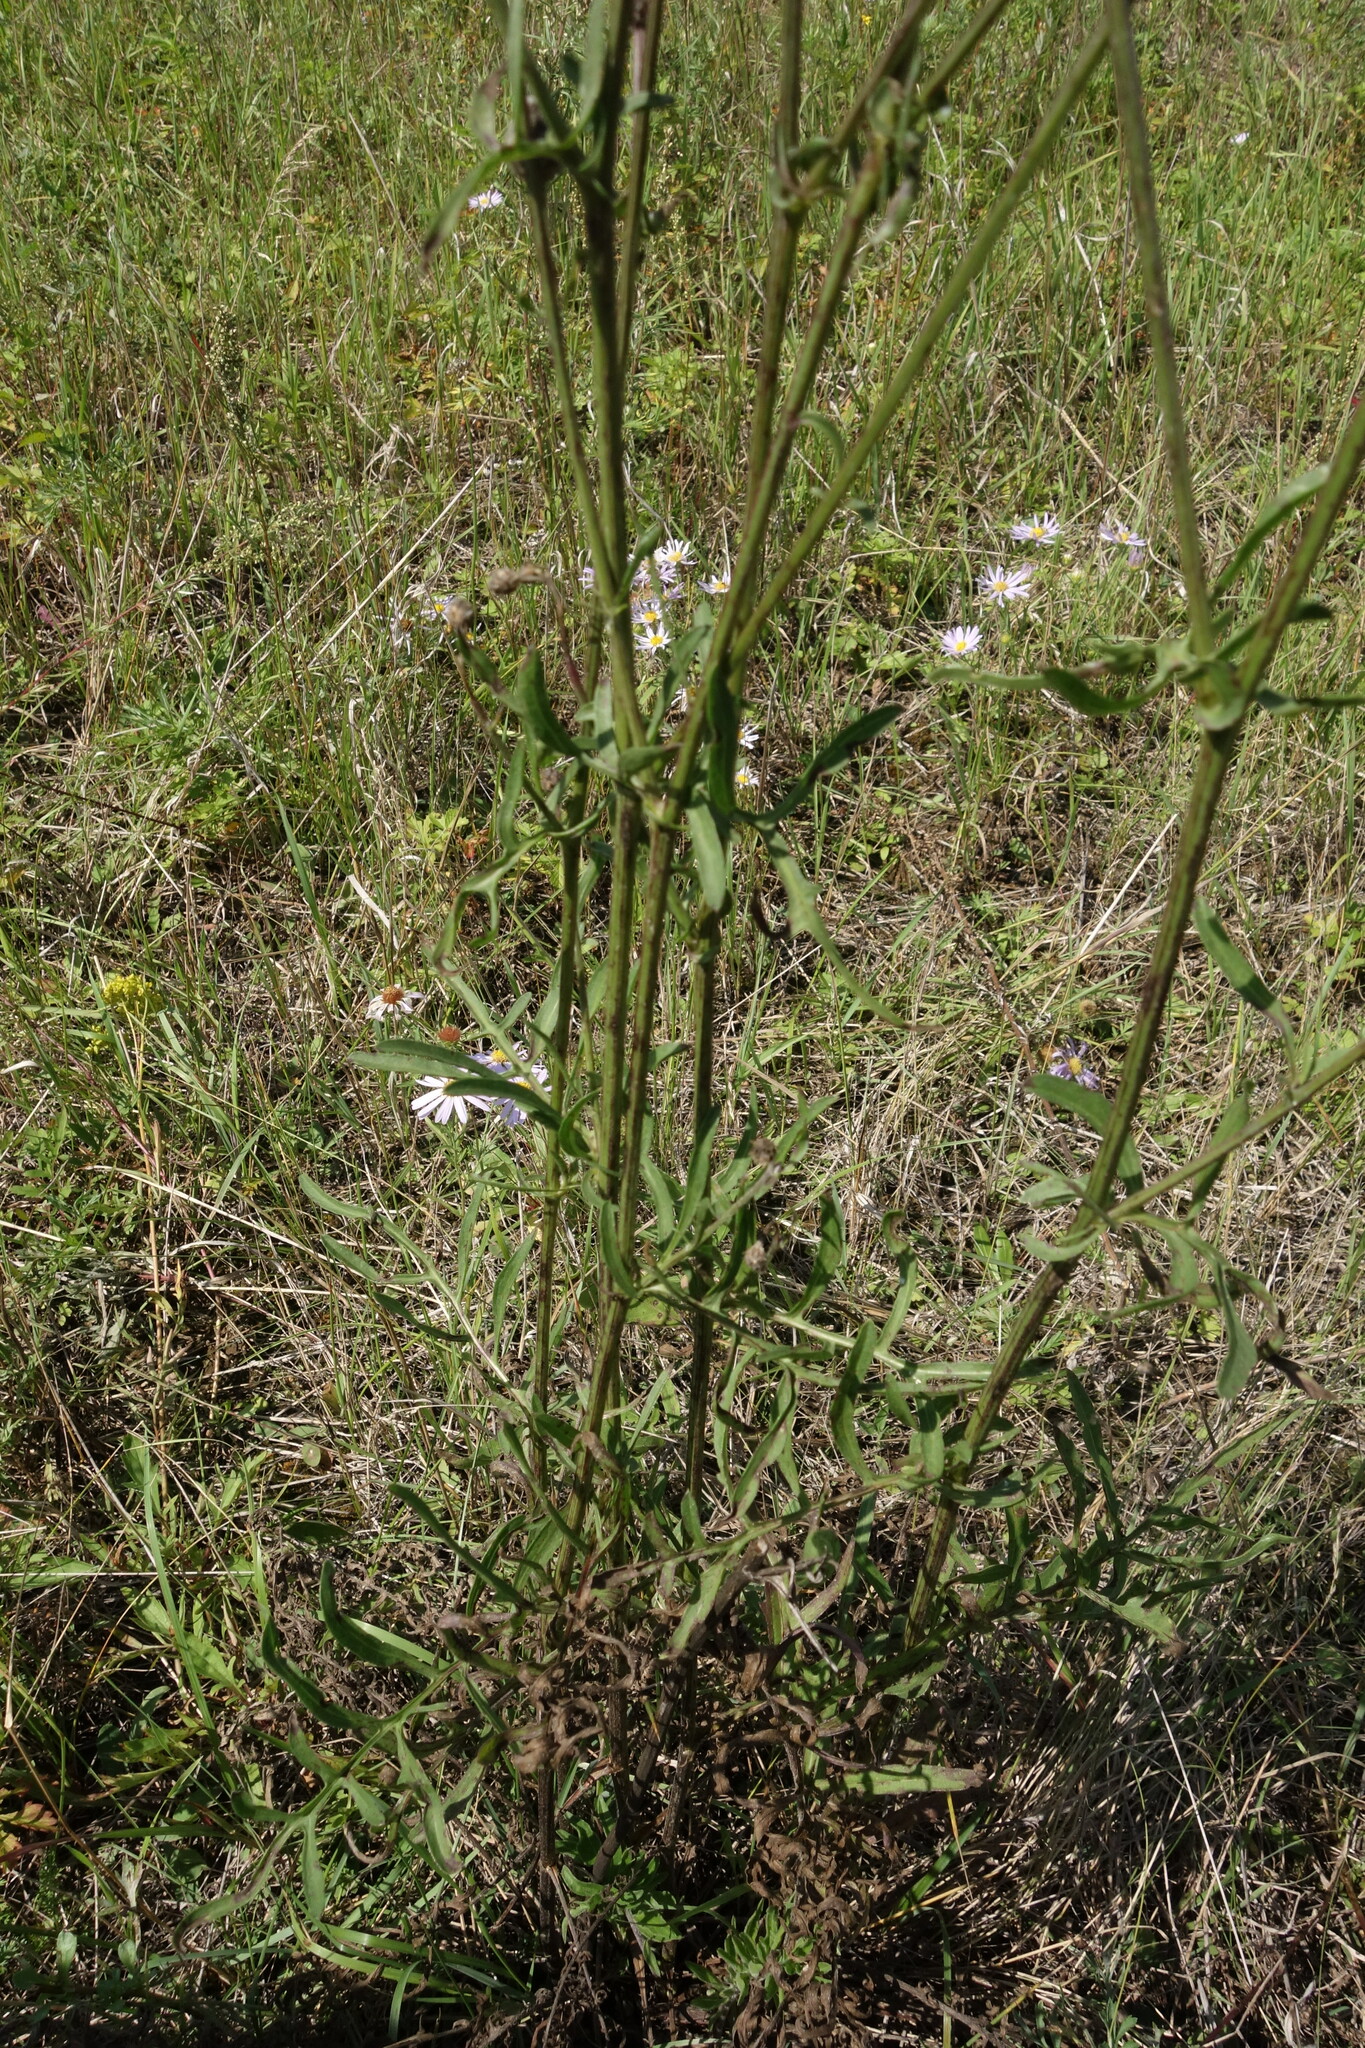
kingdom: Plantae
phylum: Tracheophyta
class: Magnoliopsida
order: Asterales
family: Asteraceae
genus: Centaurea
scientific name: Centaurea scabiosa
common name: Greater knapweed
